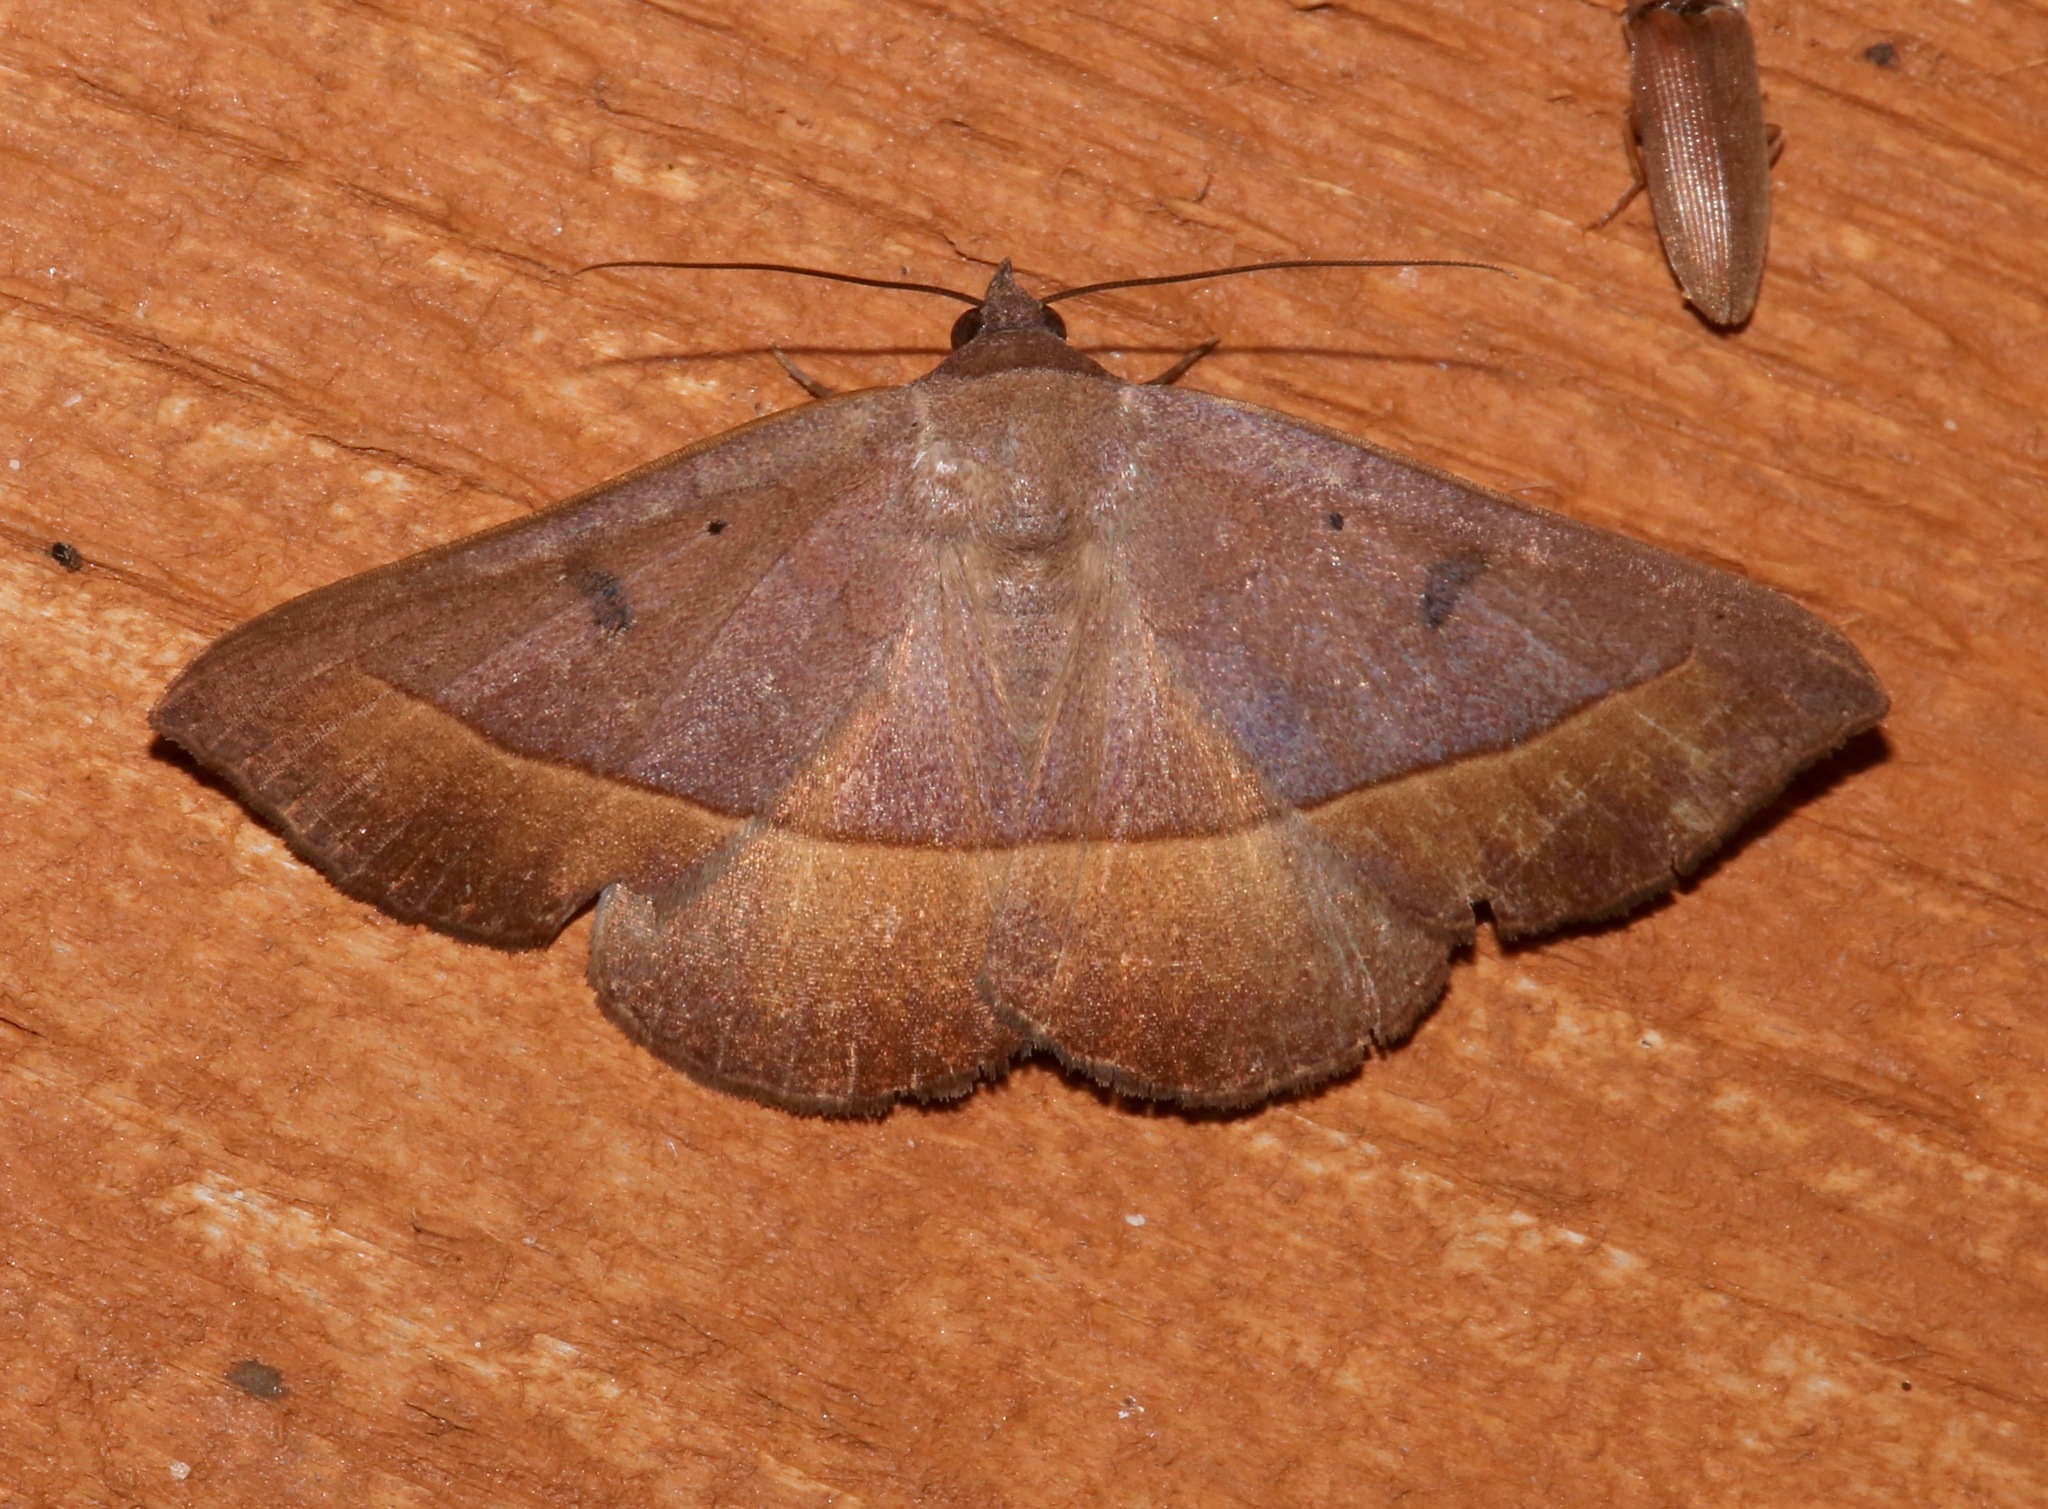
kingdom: Animalia
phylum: Arthropoda
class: Insecta
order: Lepidoptera
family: Erebidae
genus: Epidromia
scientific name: Epidromia rotundata
